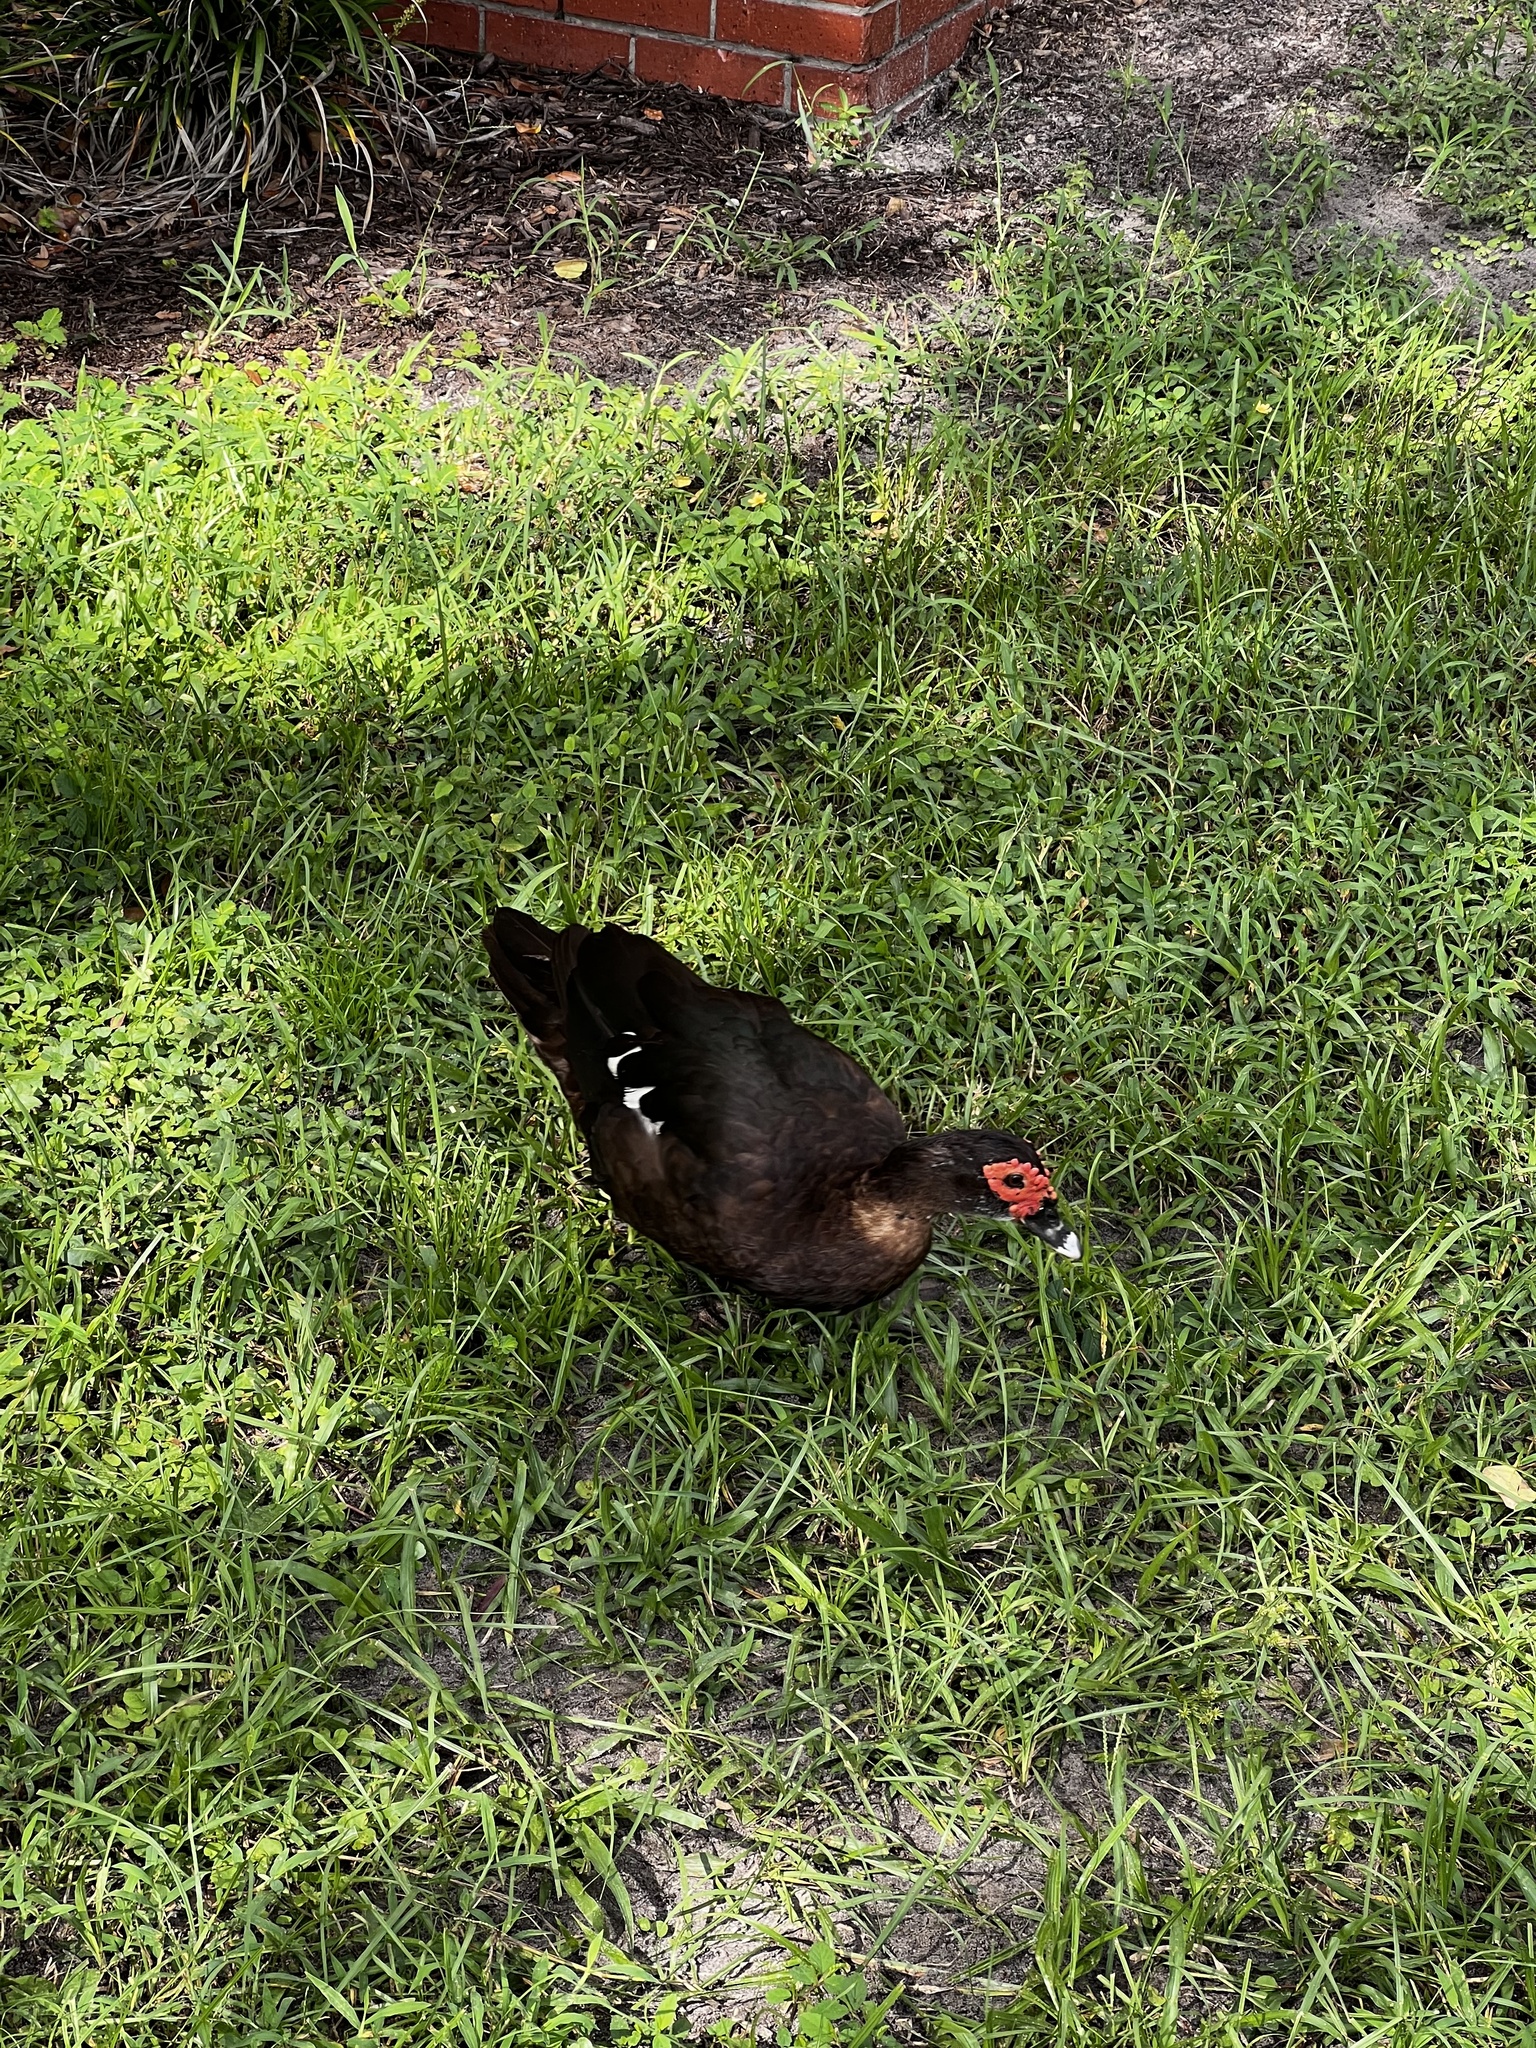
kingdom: Animalia
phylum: Chordata
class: Aves
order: Anseriformes
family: Anatidae
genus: Cairina
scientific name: Cairina moschata
